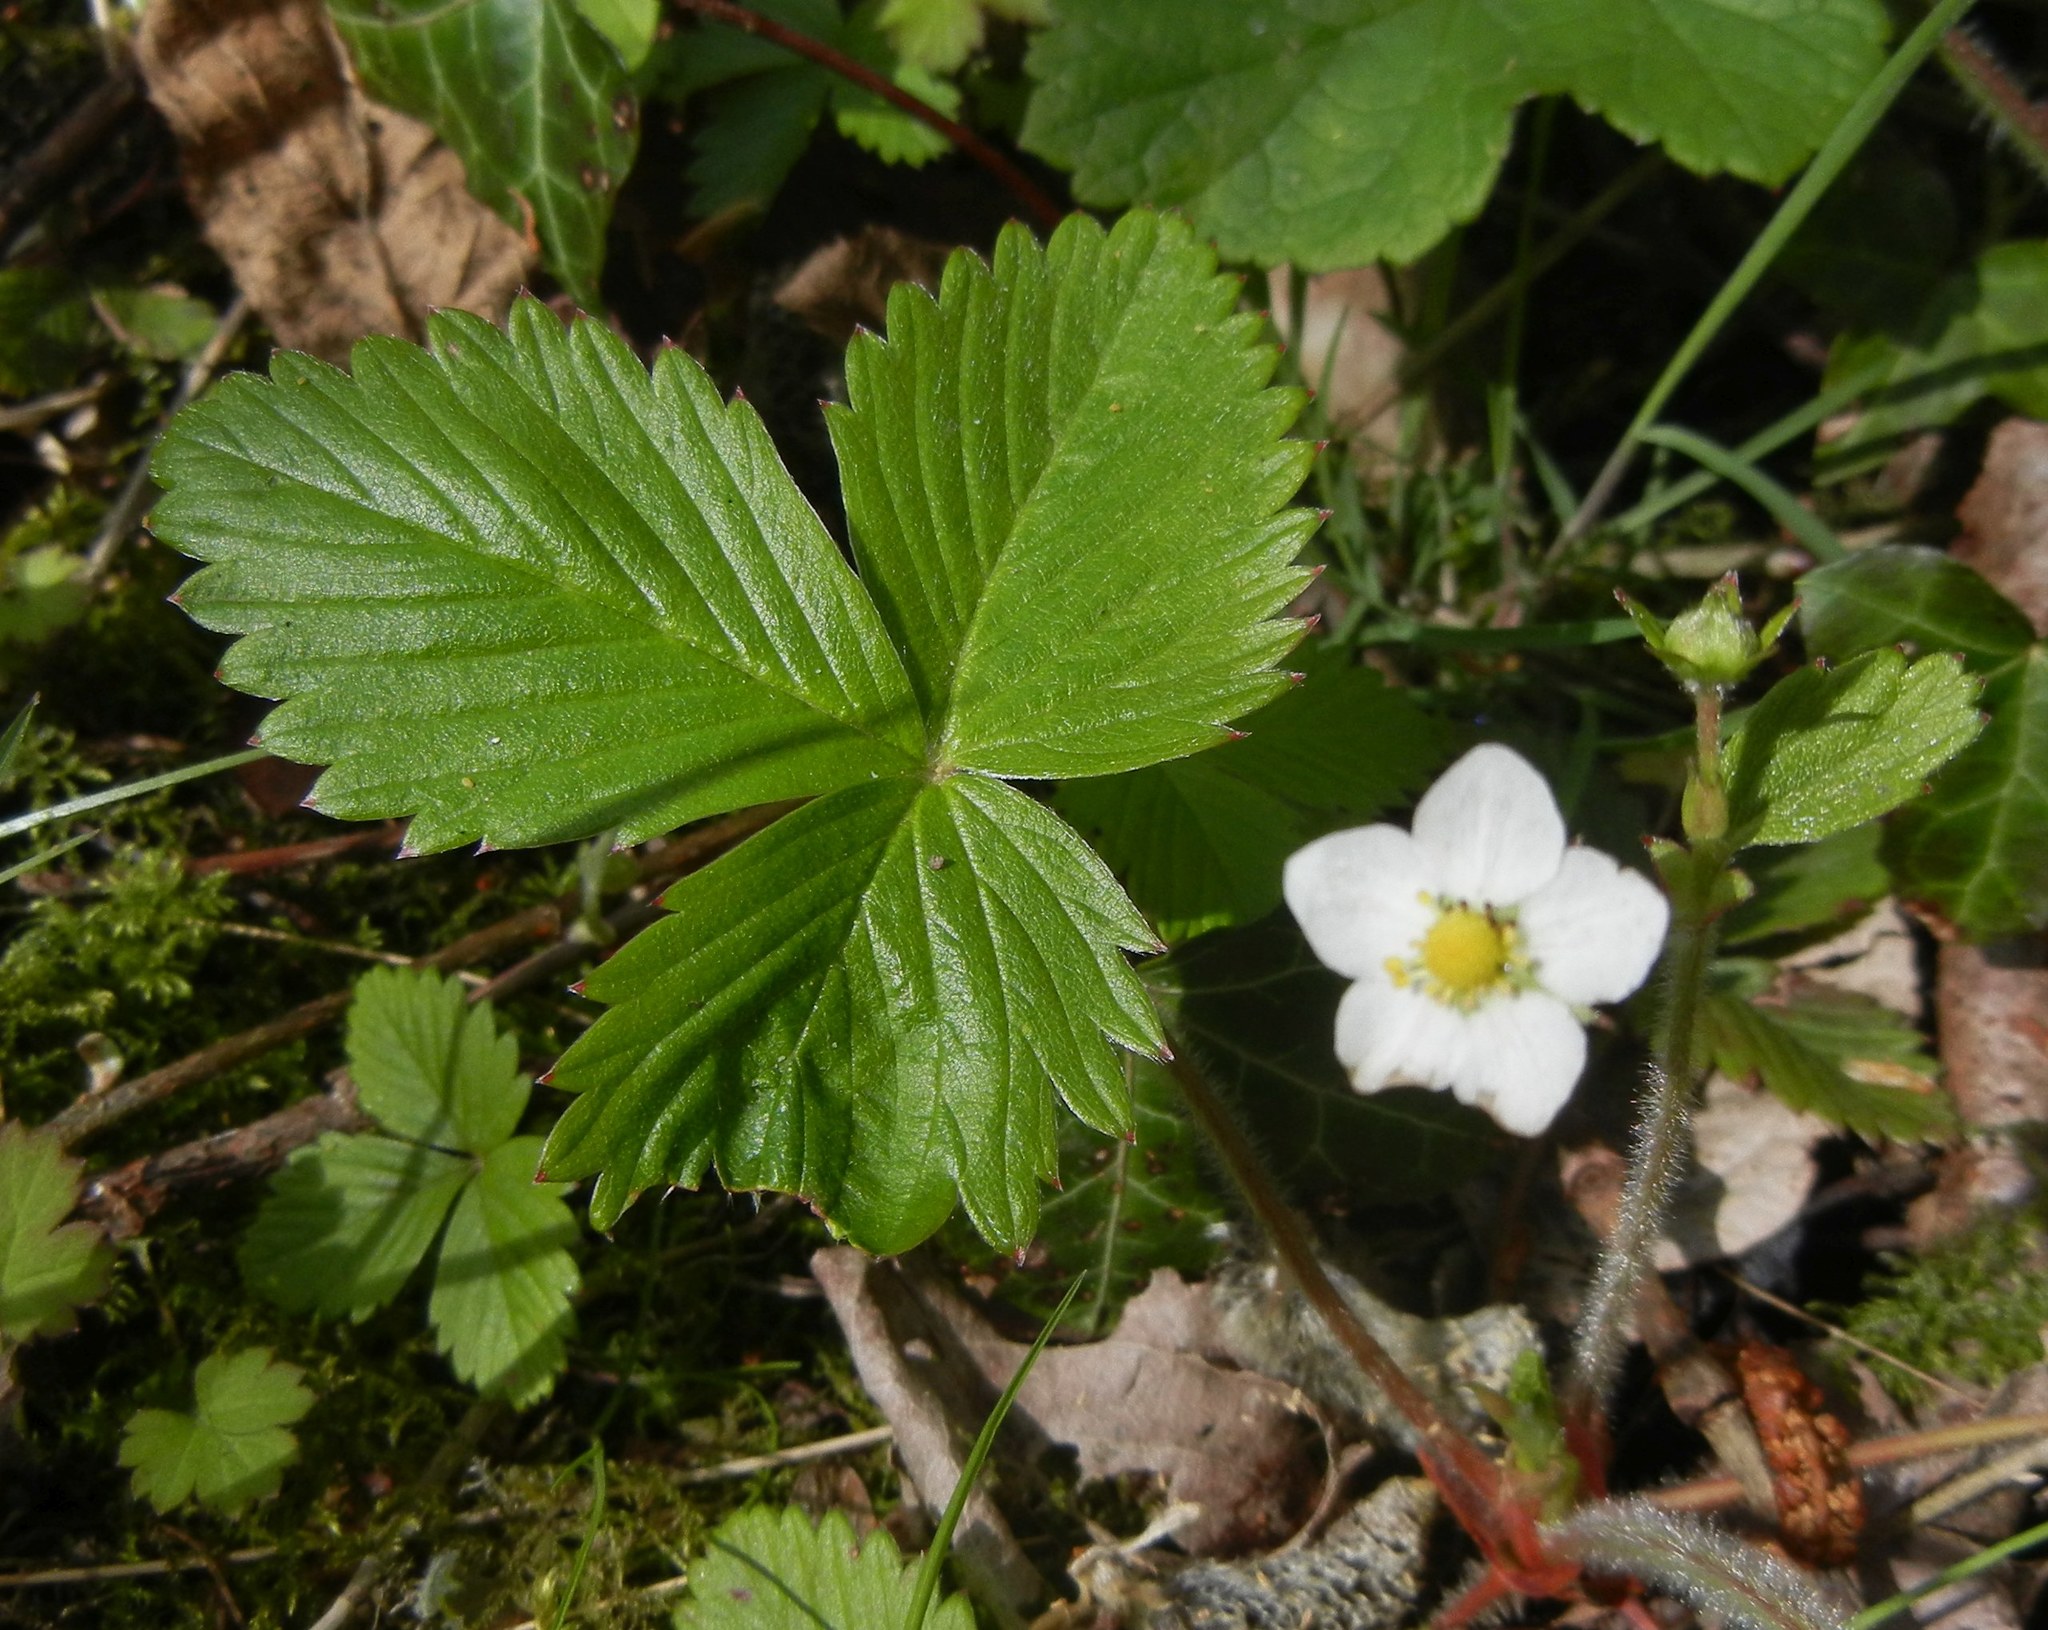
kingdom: Plantae
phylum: Tracheophyta
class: Magnoliopsida
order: Rosales
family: Rosaceae
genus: Fragaria
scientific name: Fragaria vesca
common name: Wild strawberry
